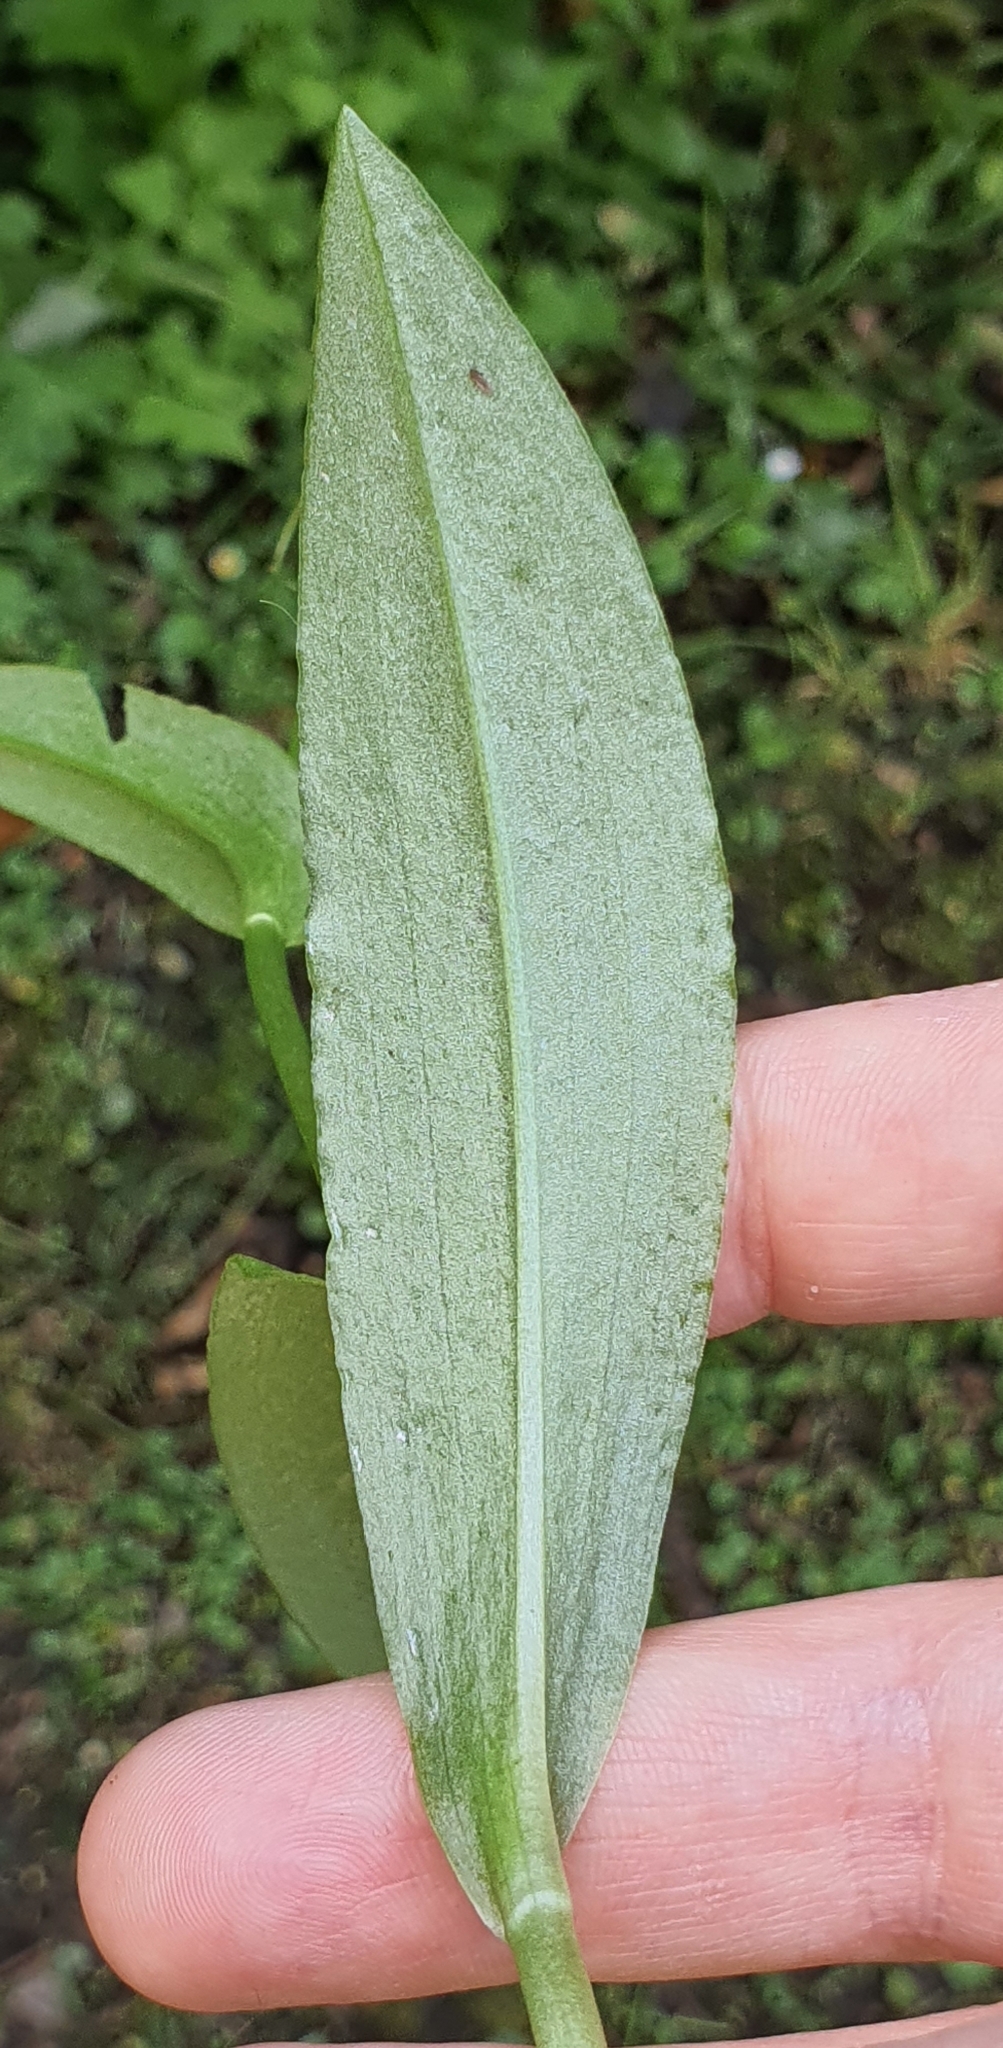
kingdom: Plantae
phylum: Tracheophyta
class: Liliopsida
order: Asparagales
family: Orchidaceae
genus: Pterostylis
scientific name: Pterostylis oliveri
